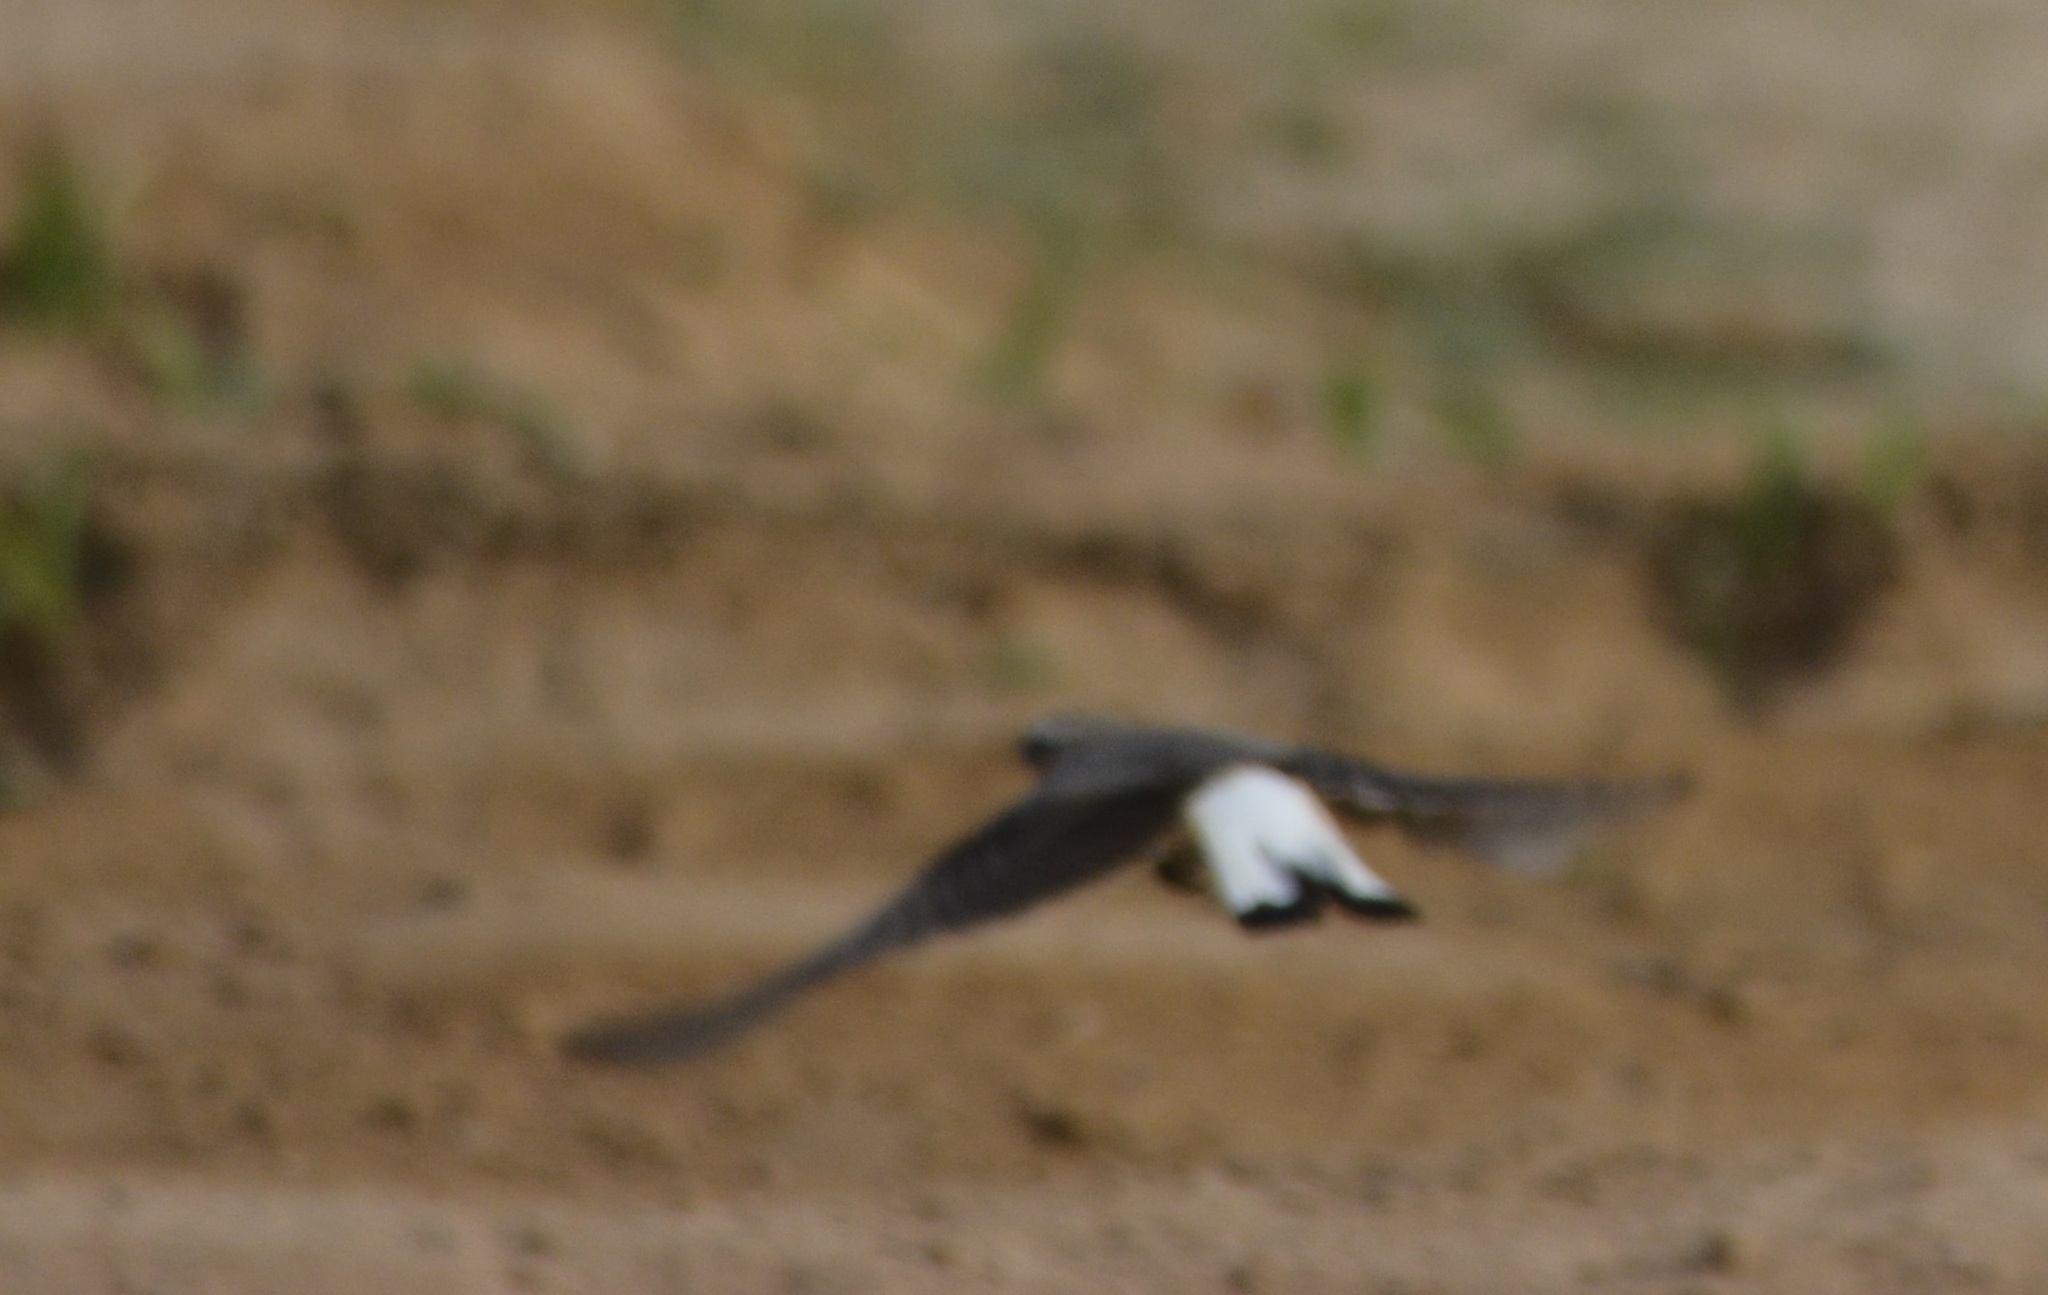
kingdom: Animalia
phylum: Chordata
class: Aves
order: Passeriformes
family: Muscicapidae
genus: Oenanthe
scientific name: Oenanthe oenanthe
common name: Northern wheatear
